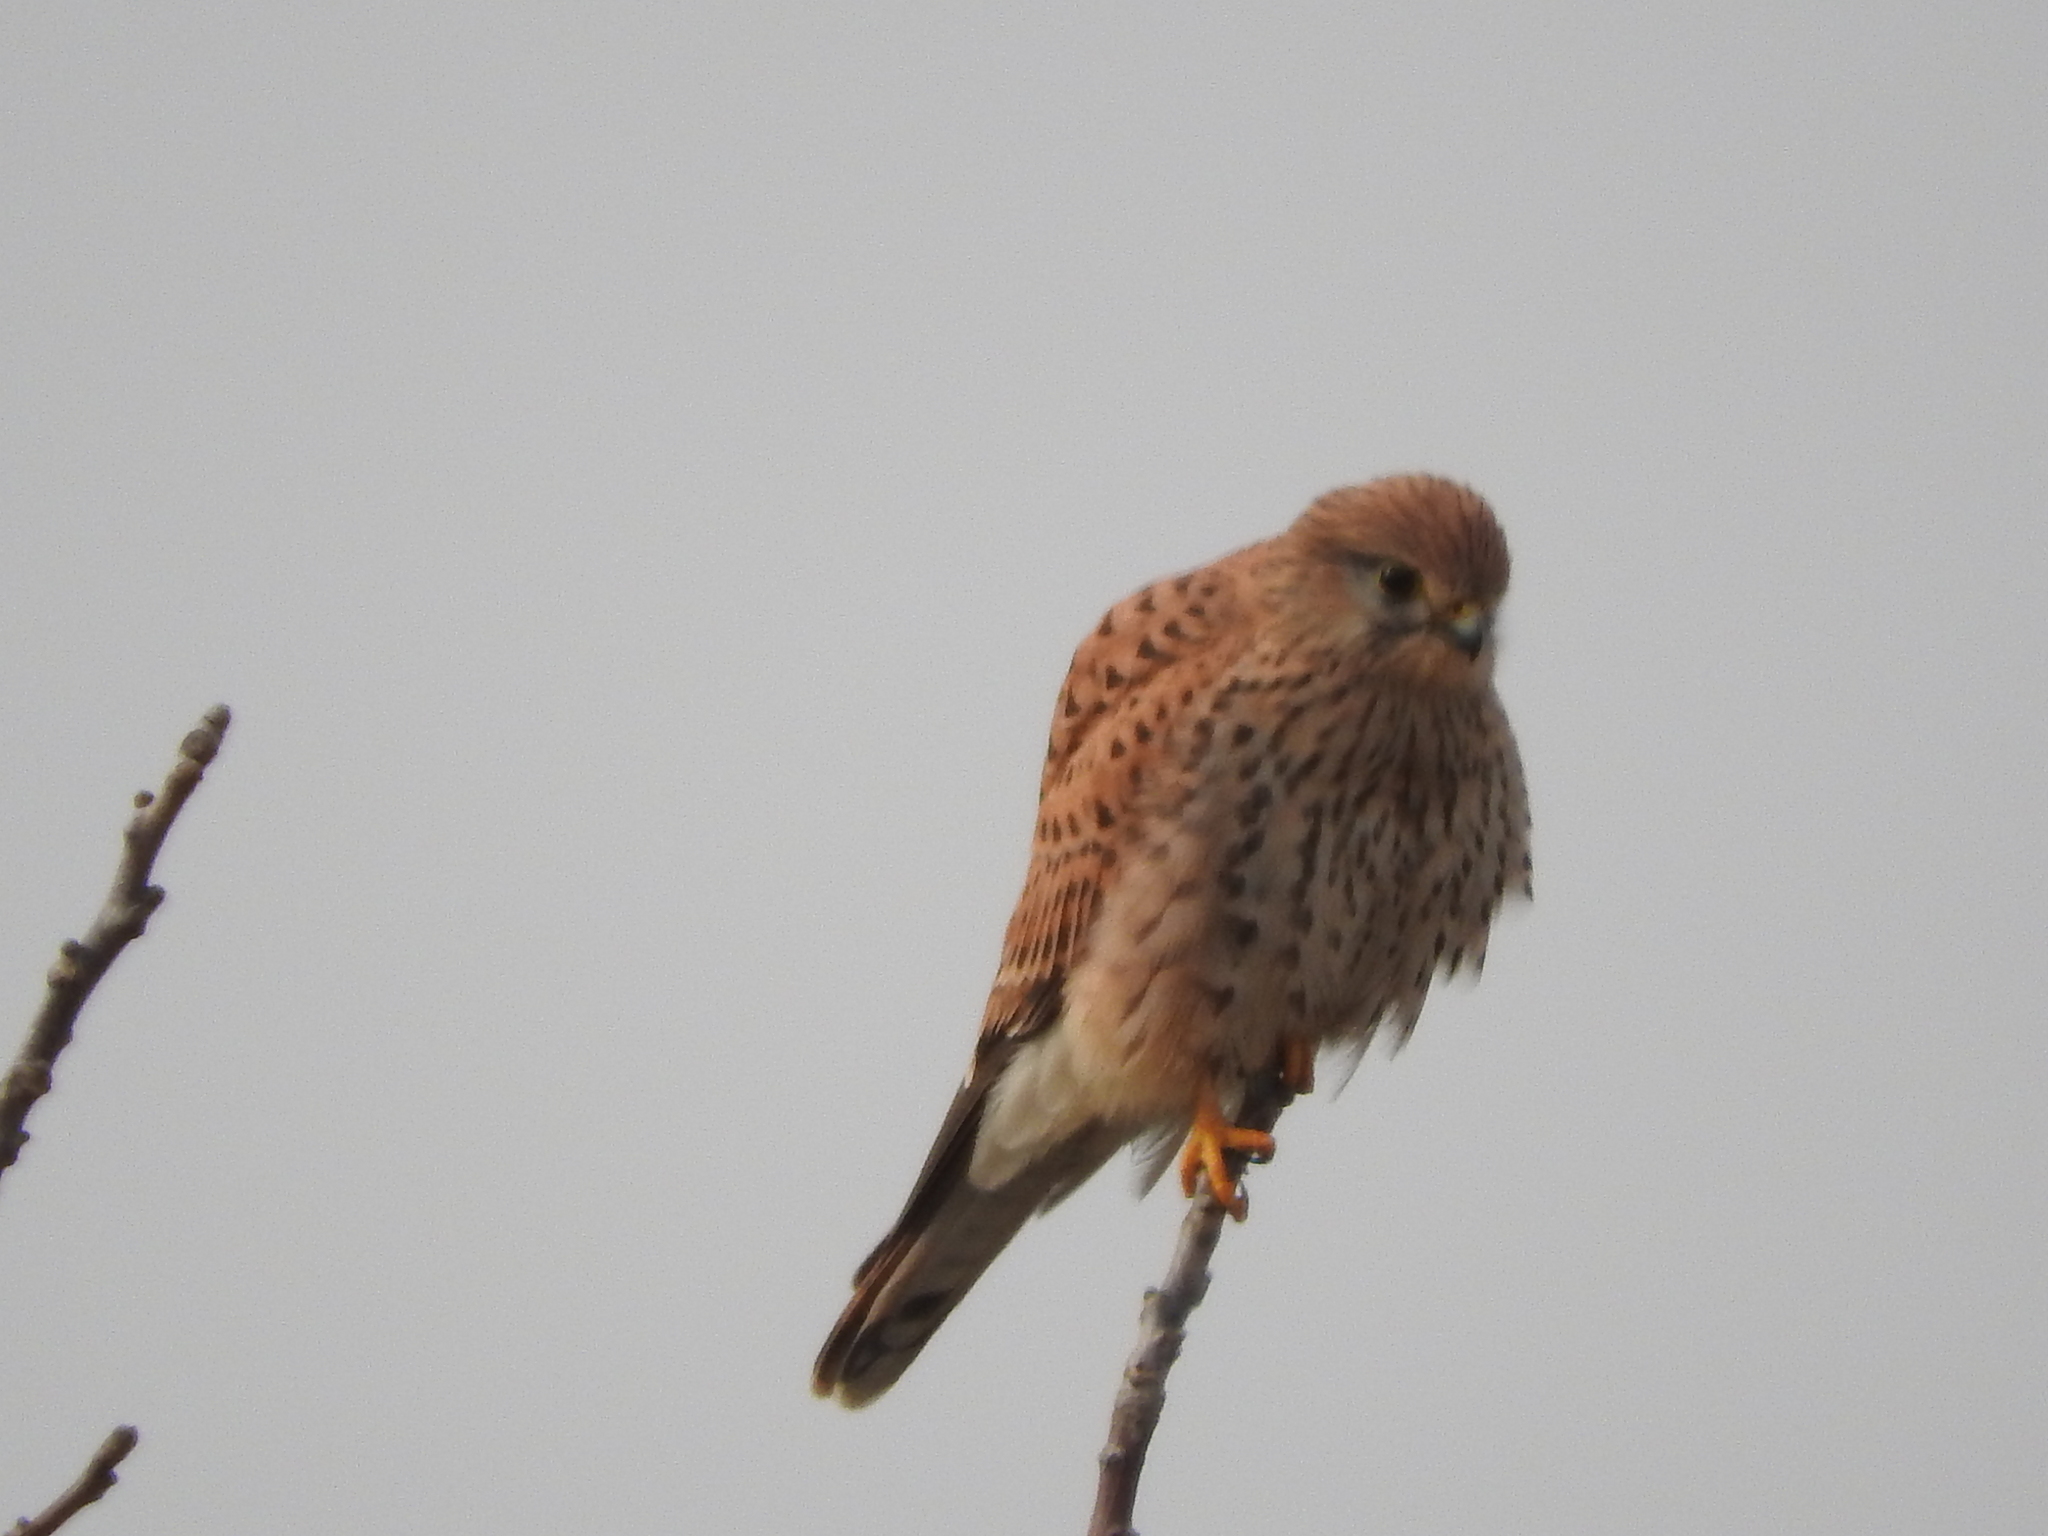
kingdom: Animalia
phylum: Chordata
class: Aves
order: Falconiformes
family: Falconidae
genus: Falco
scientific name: Falco tinnunculus
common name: Common kestrel
